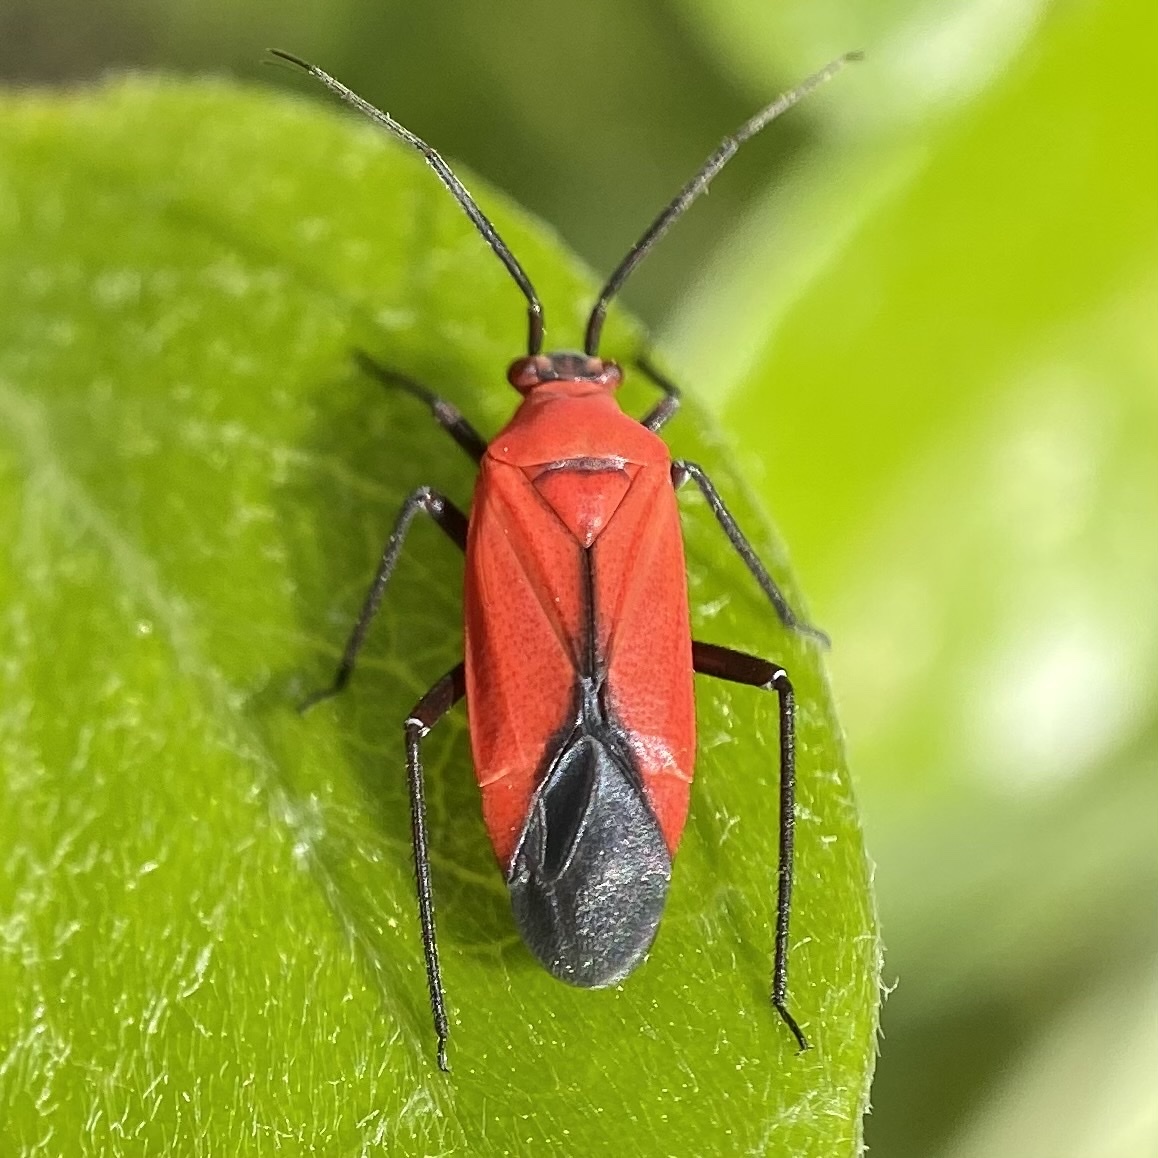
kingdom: Animalia
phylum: Arthropoda
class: Insecta
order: Hemiptera
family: Miridae
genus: Lopidea
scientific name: Lopidea major
